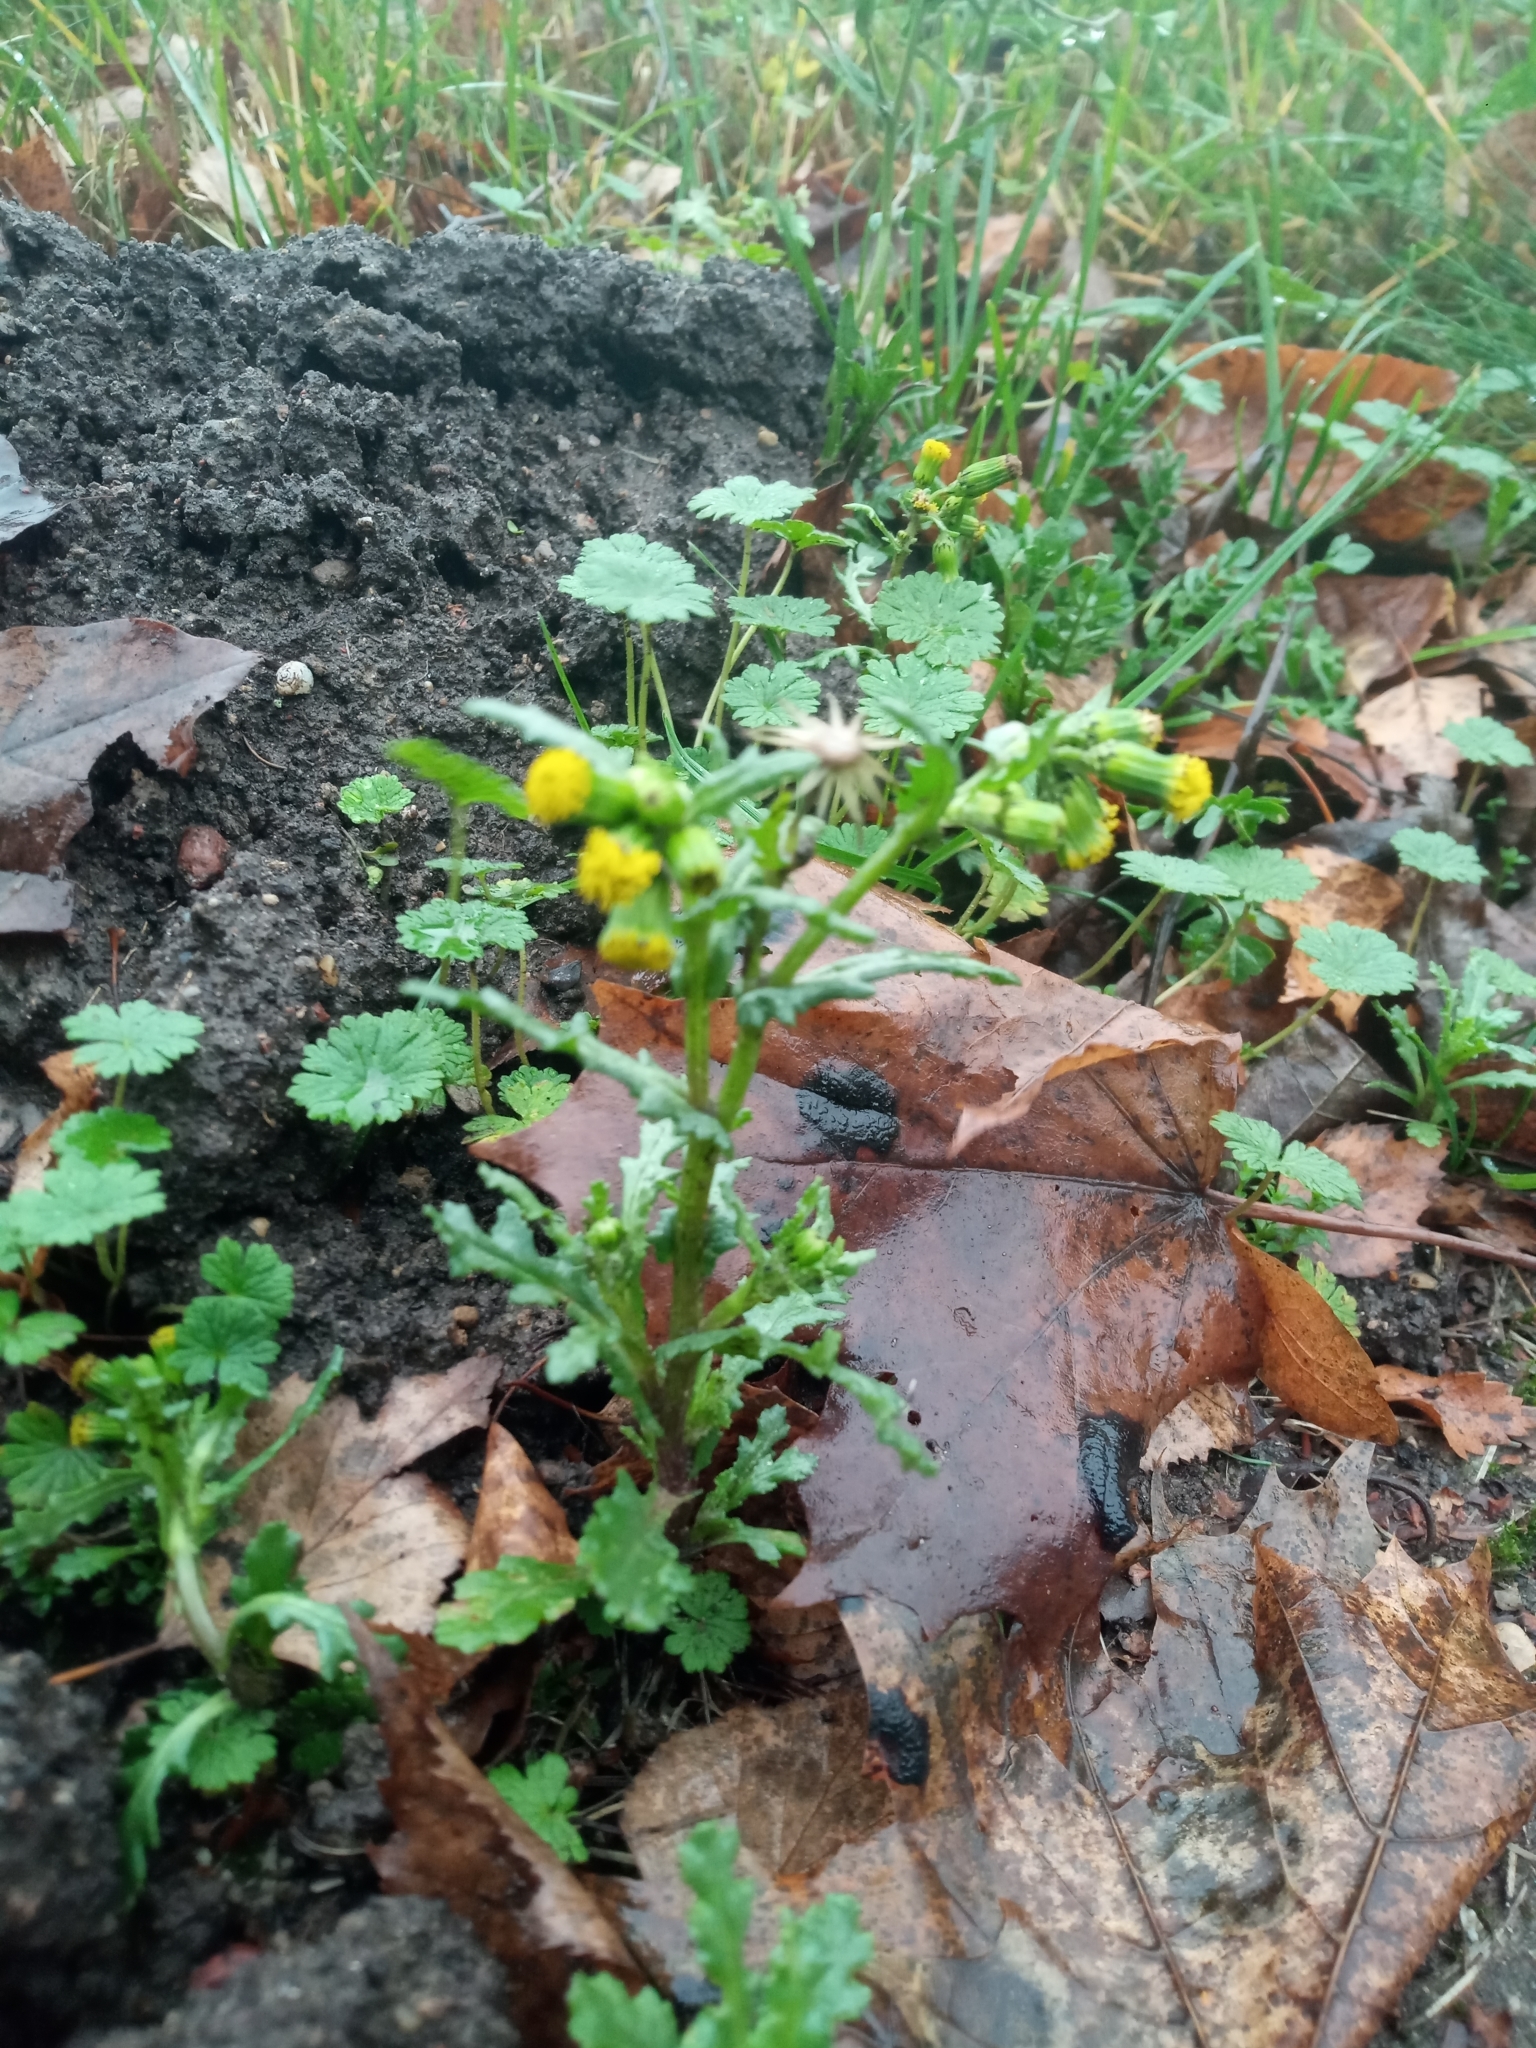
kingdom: Plantae
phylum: Tracheophyta
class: Magnoliopsida
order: Asterales
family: Asteraceae
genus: Senecio
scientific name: Senecio vulgaris
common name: Old-man-in-the-spring
